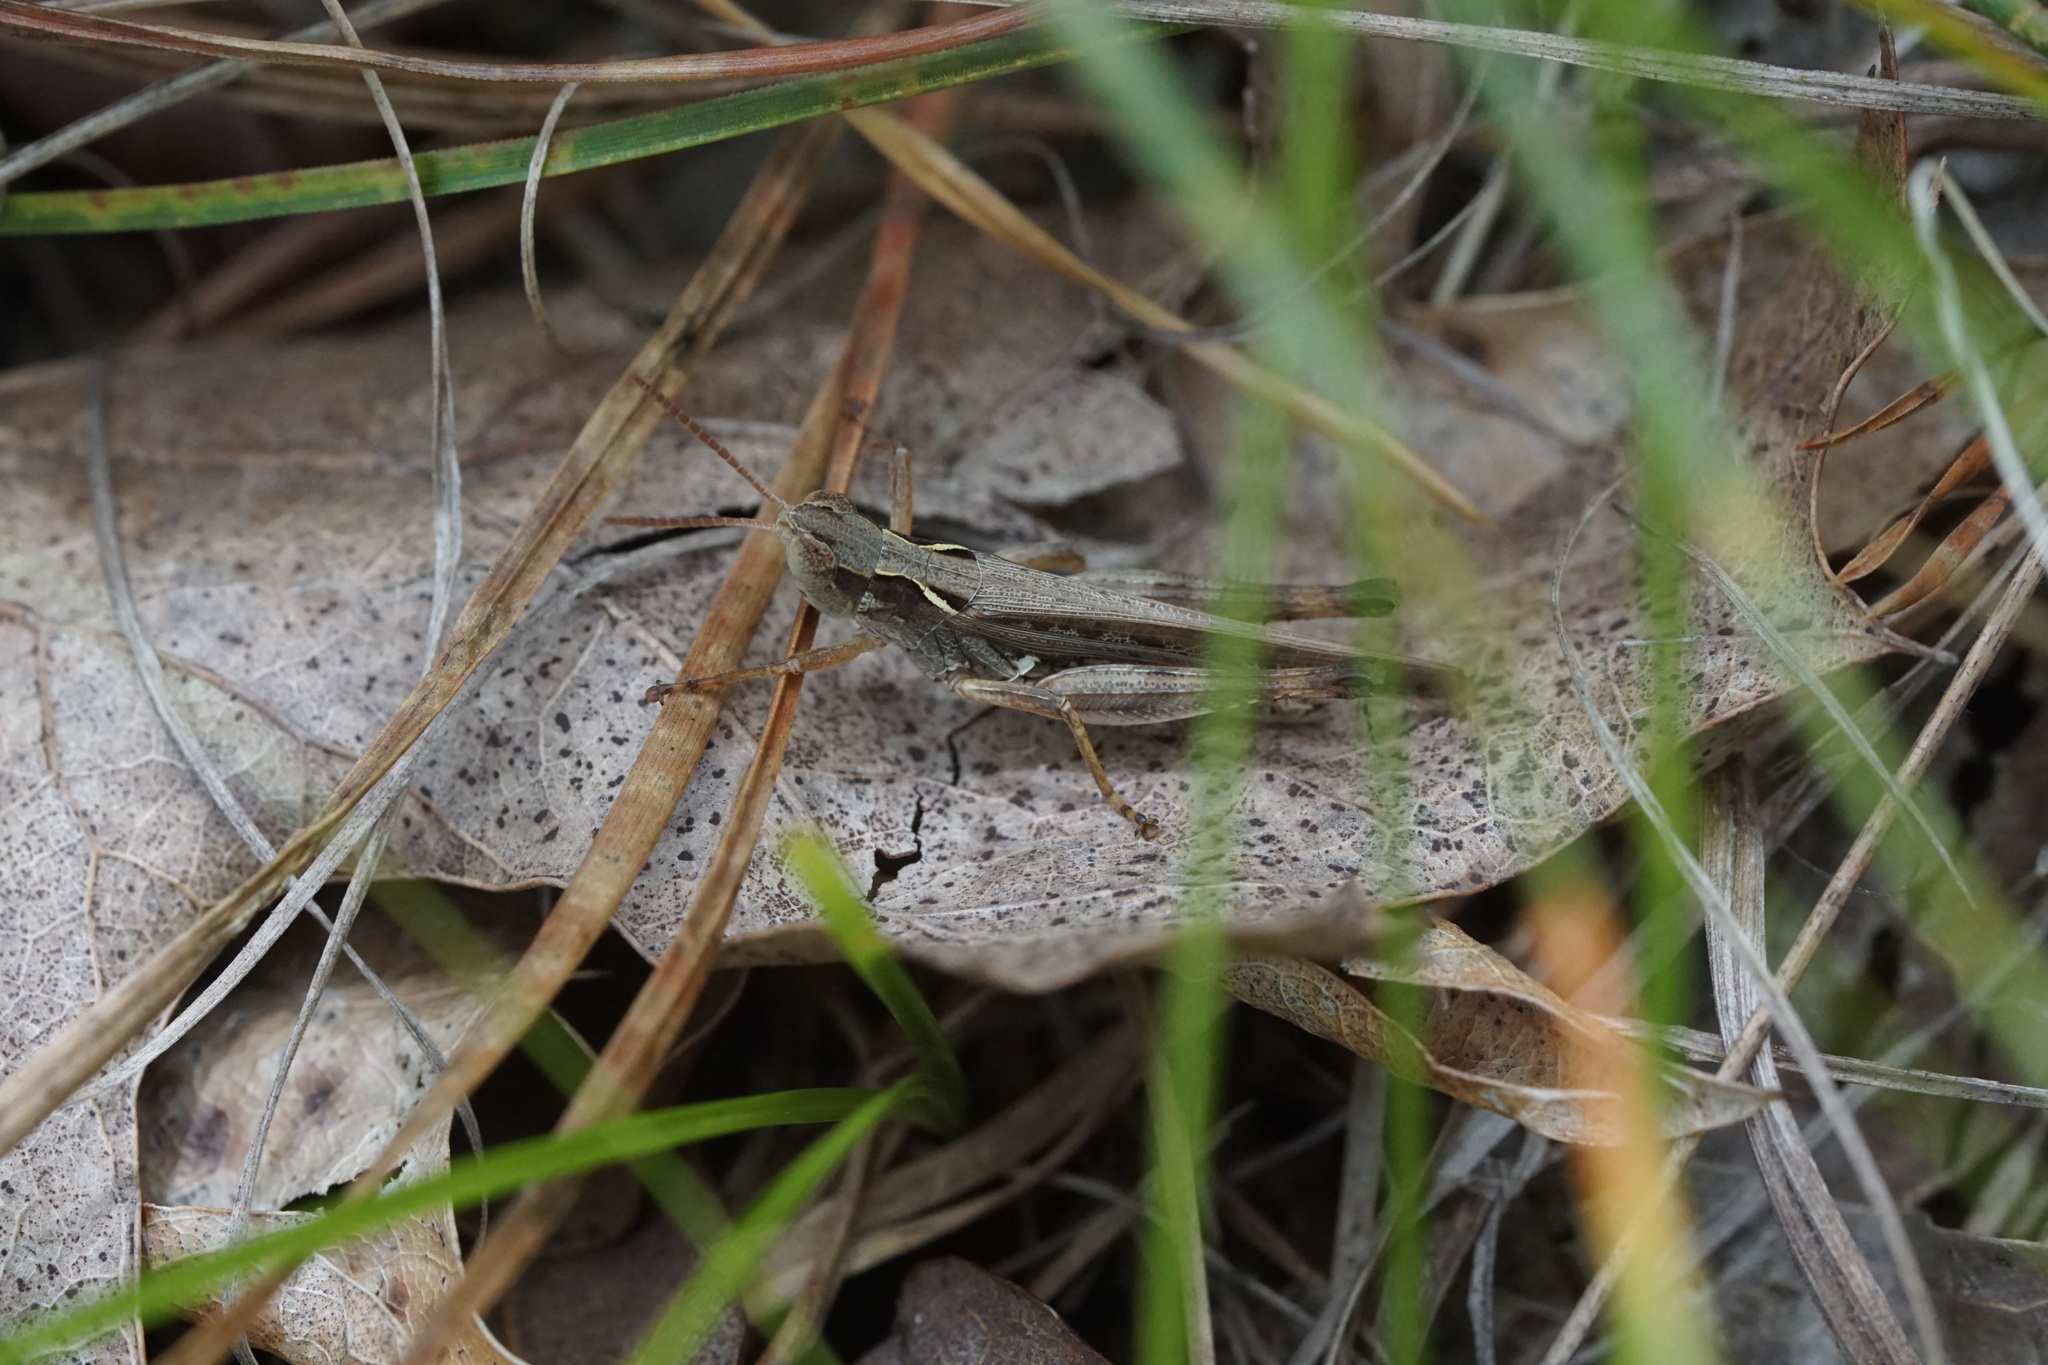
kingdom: Animalia
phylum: Arthropoda
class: Insecta
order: Orthoptera
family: Acrididae
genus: Orphulella
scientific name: Orphulella pelidna
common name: Spotted-wing grasshopper
